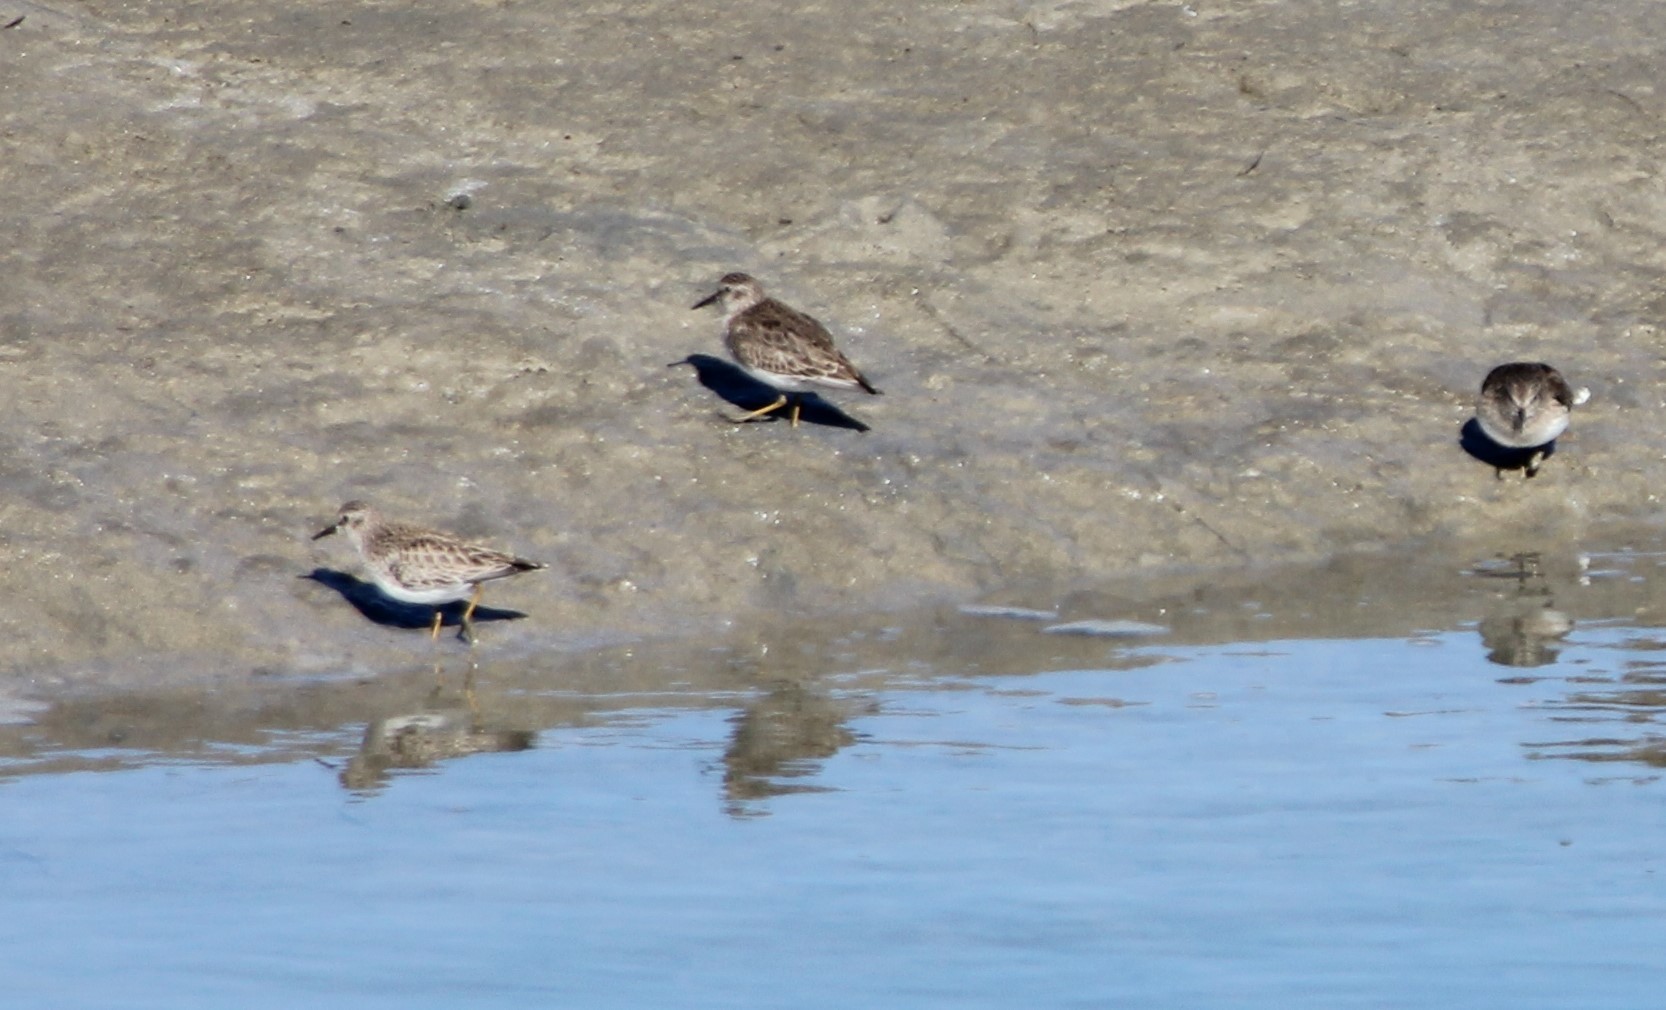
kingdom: Animalia
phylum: Chordata
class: Aves
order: Charadriiformes
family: Scolopacidae
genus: Calidris
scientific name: Calidris minutilla
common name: Least sandpiper
